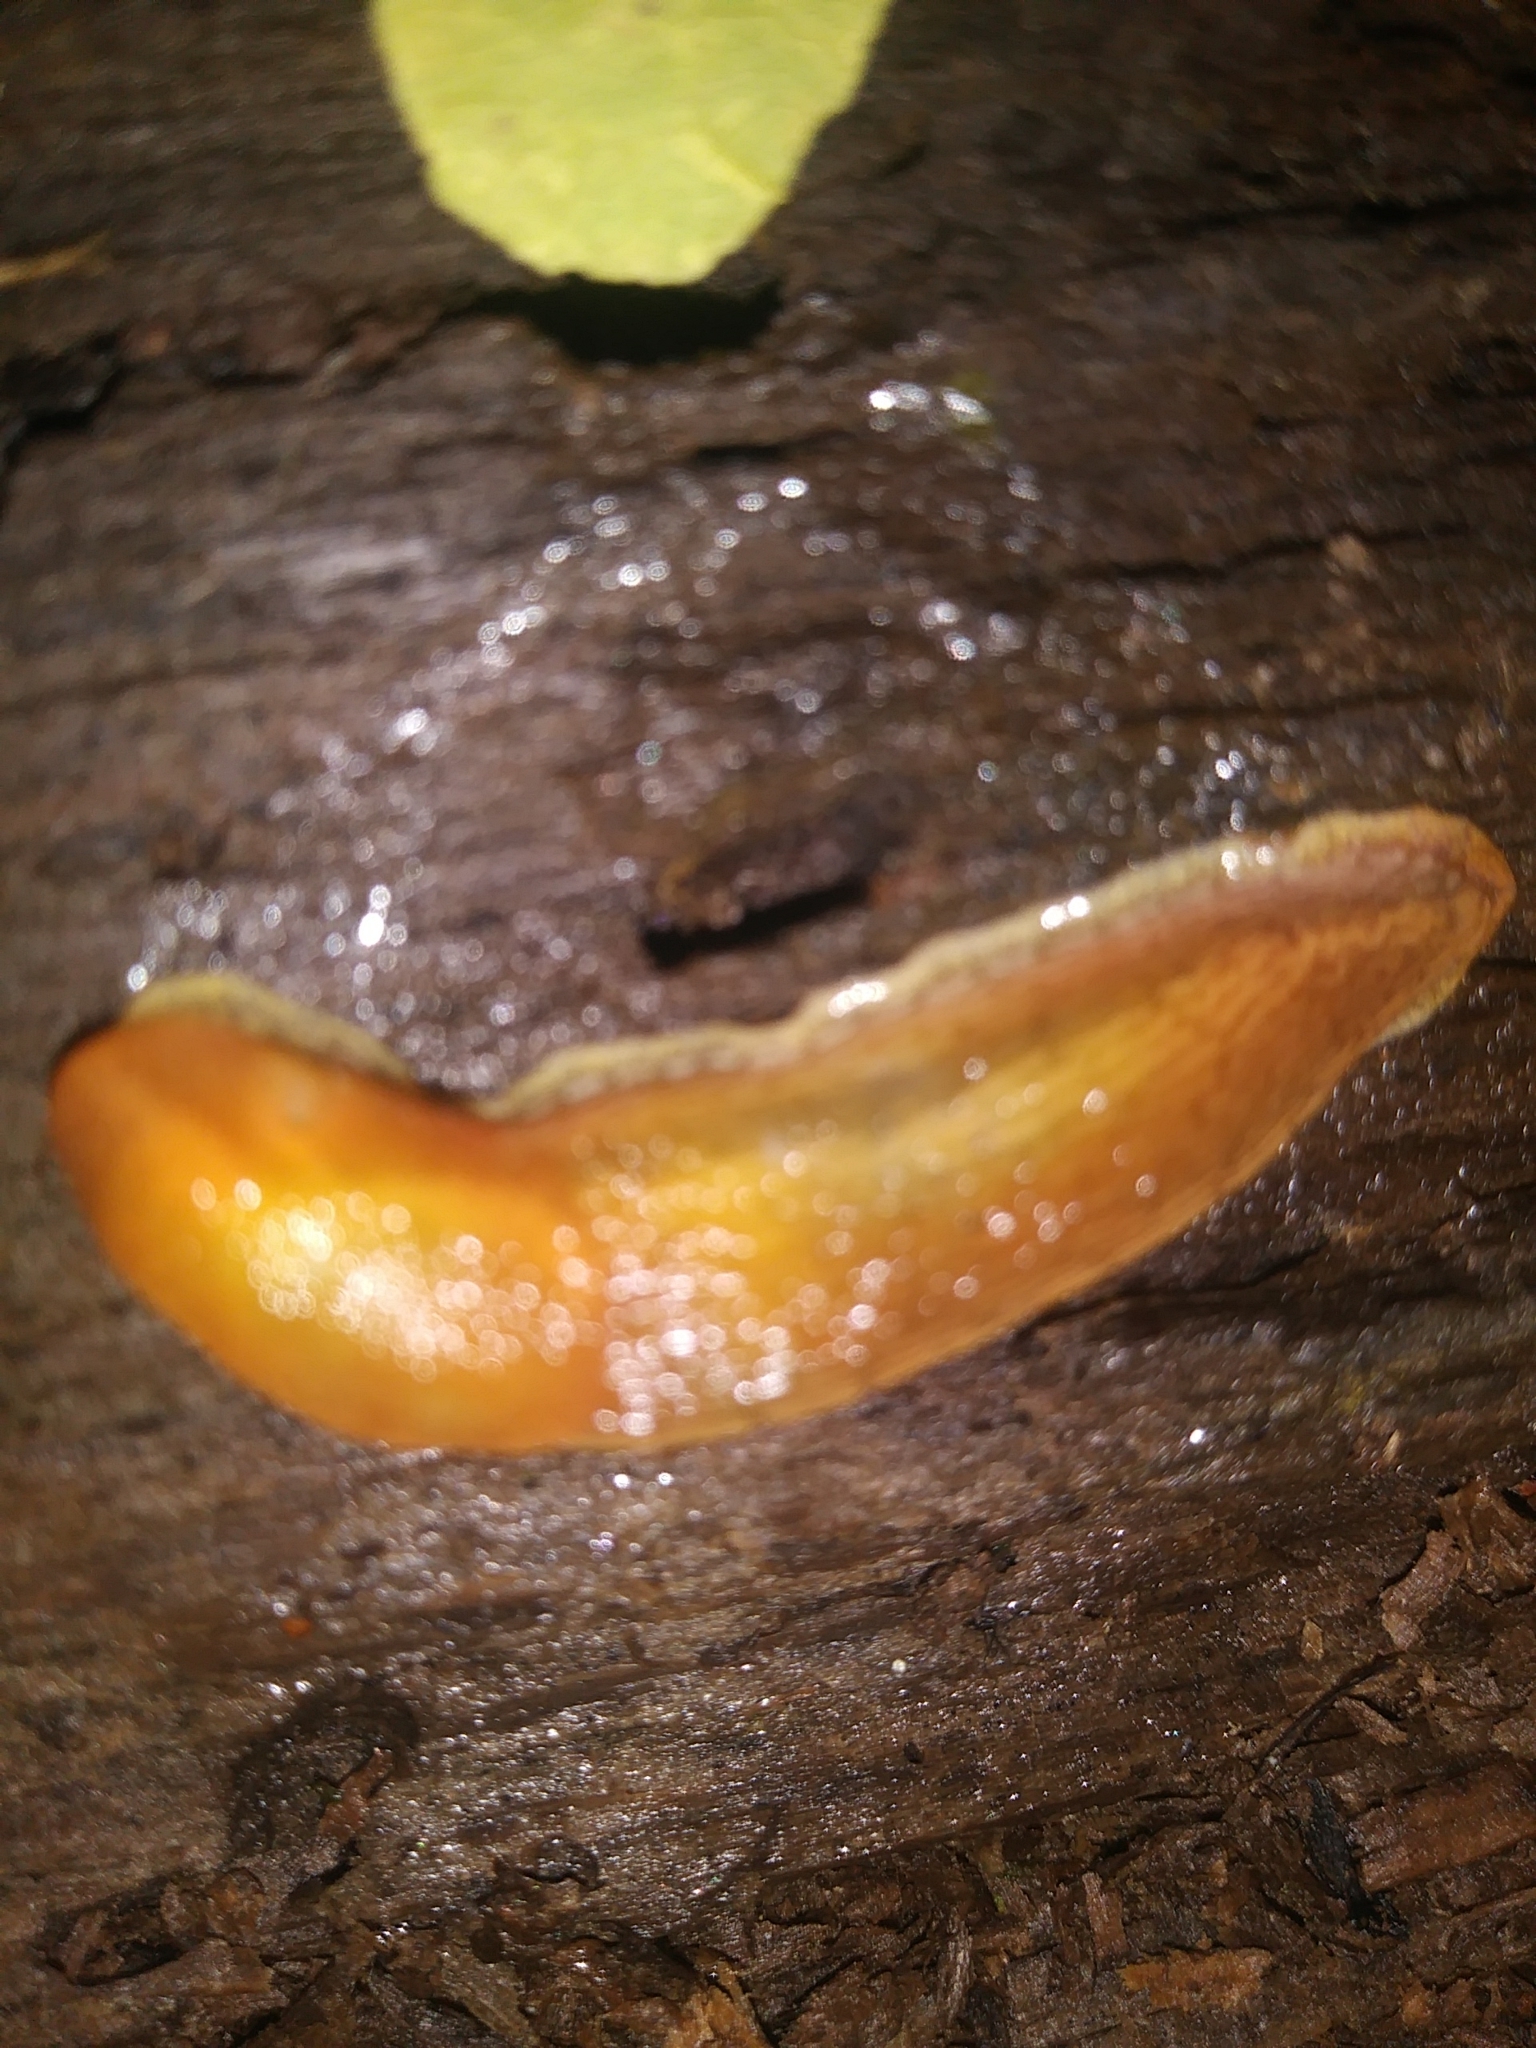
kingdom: Animalia
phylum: Mollusca
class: Gastropoda
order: Stylommatophora
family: Arionidae
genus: Arion
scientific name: Arion subfuscus
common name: Dusky arion
